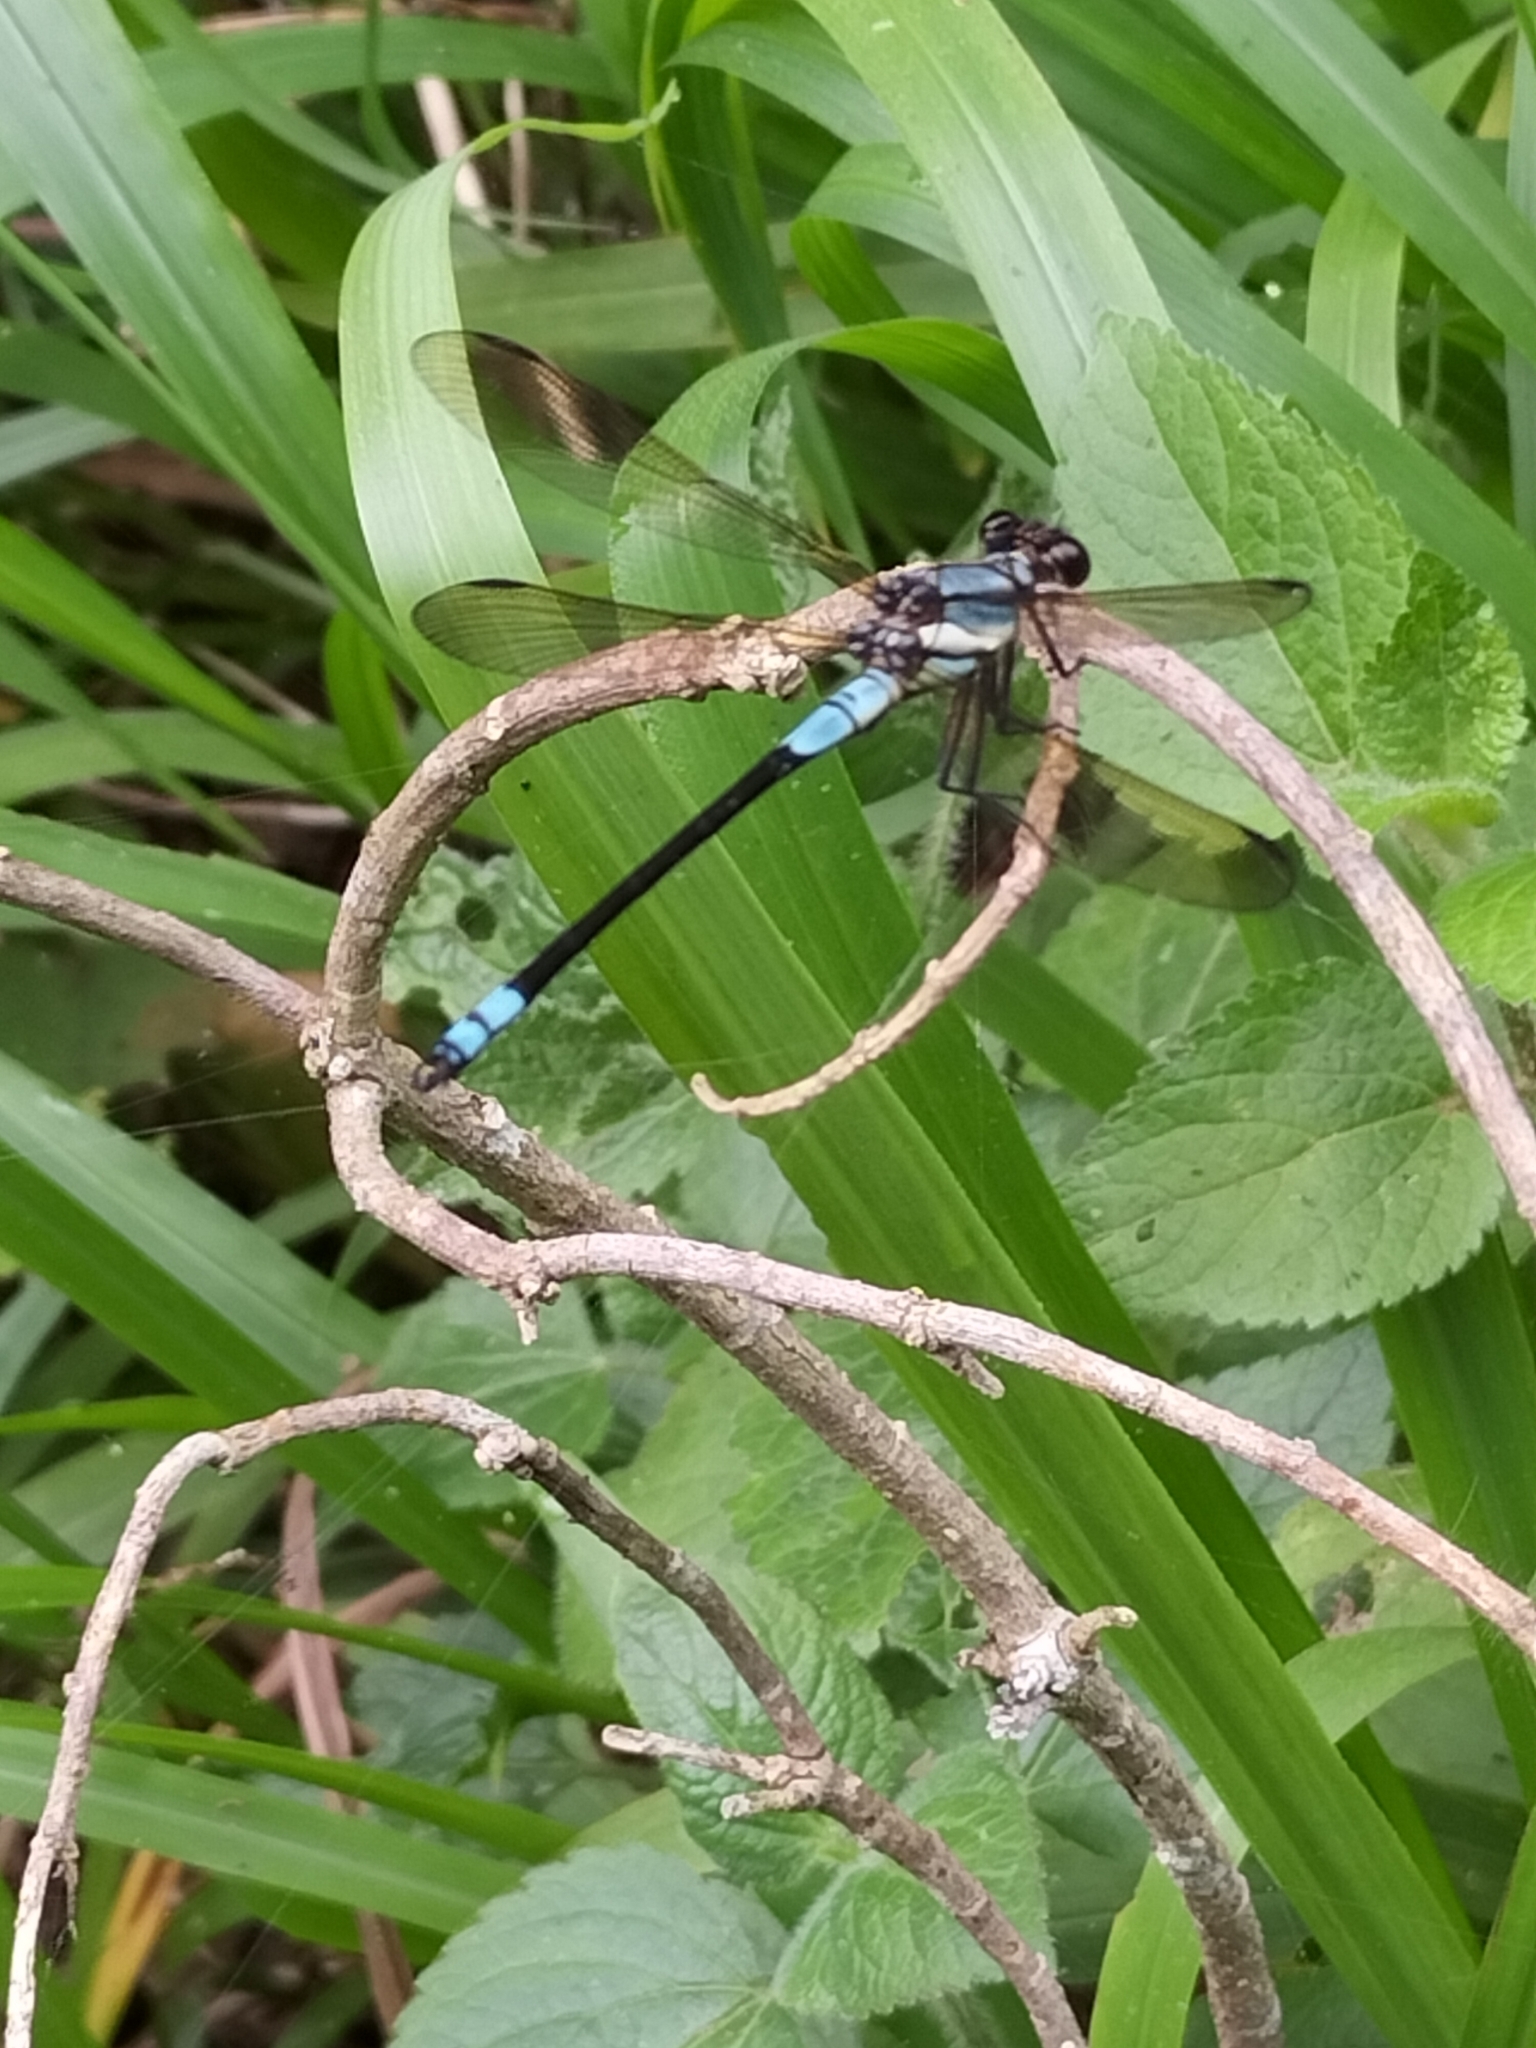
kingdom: Animalia
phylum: Arthropoda
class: Insecta
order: Odonata
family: Lestoideidae
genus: Diphlebia
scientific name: Diphlebia euphoeoides
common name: Tropical rockmaster
